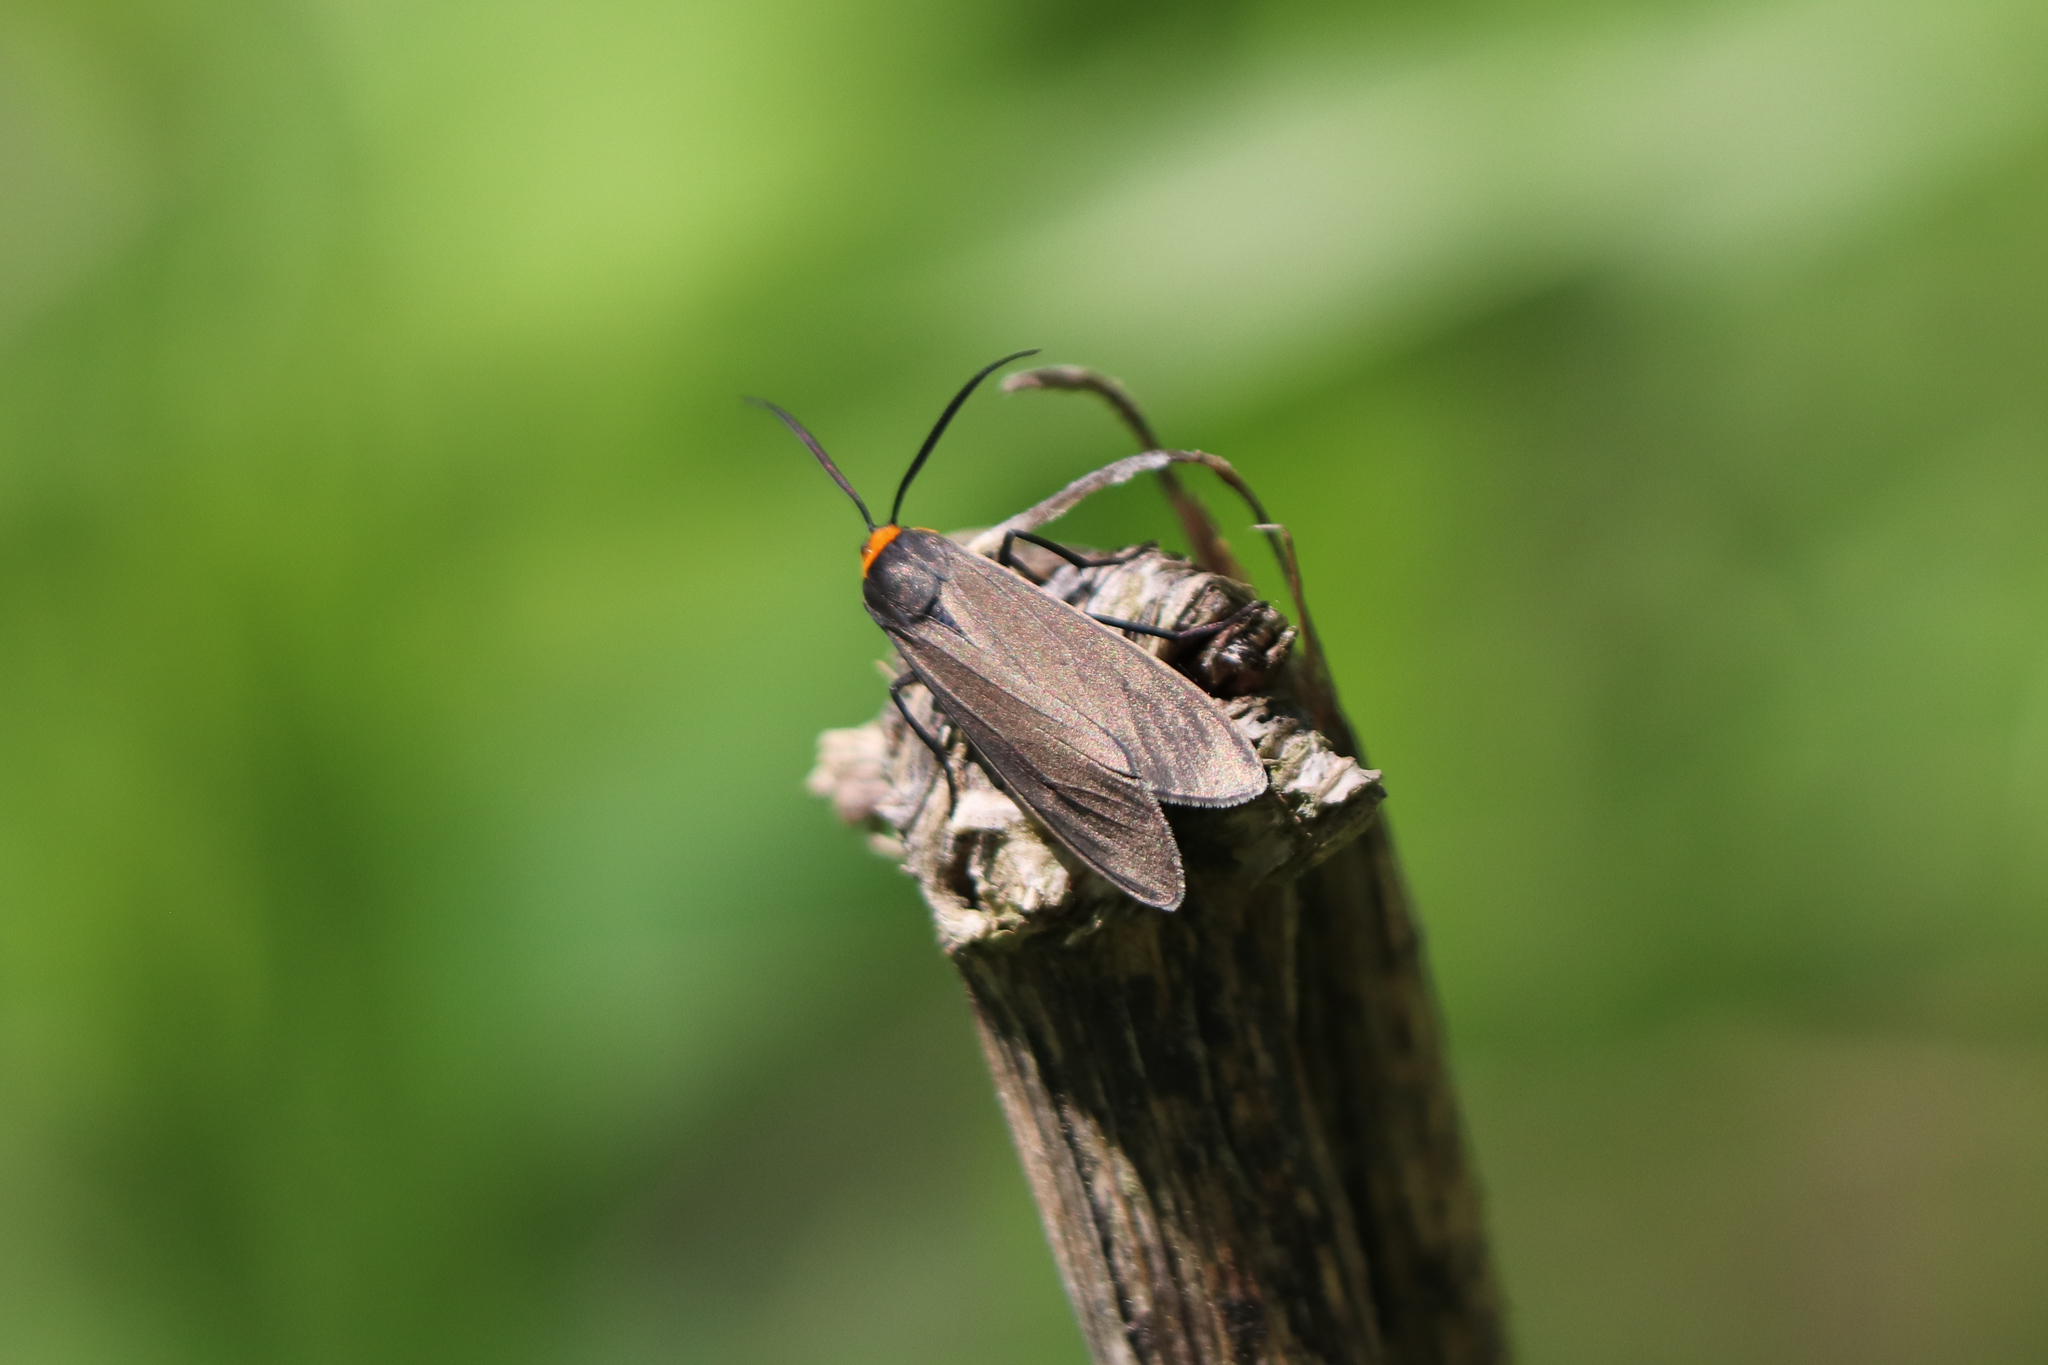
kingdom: Animalia
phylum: Arthropoda
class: Insecta
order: Lepidoptera
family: Erebidae
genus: Cisseps
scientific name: Cisseps fulvicollis
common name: Yellow-collared scape moth
